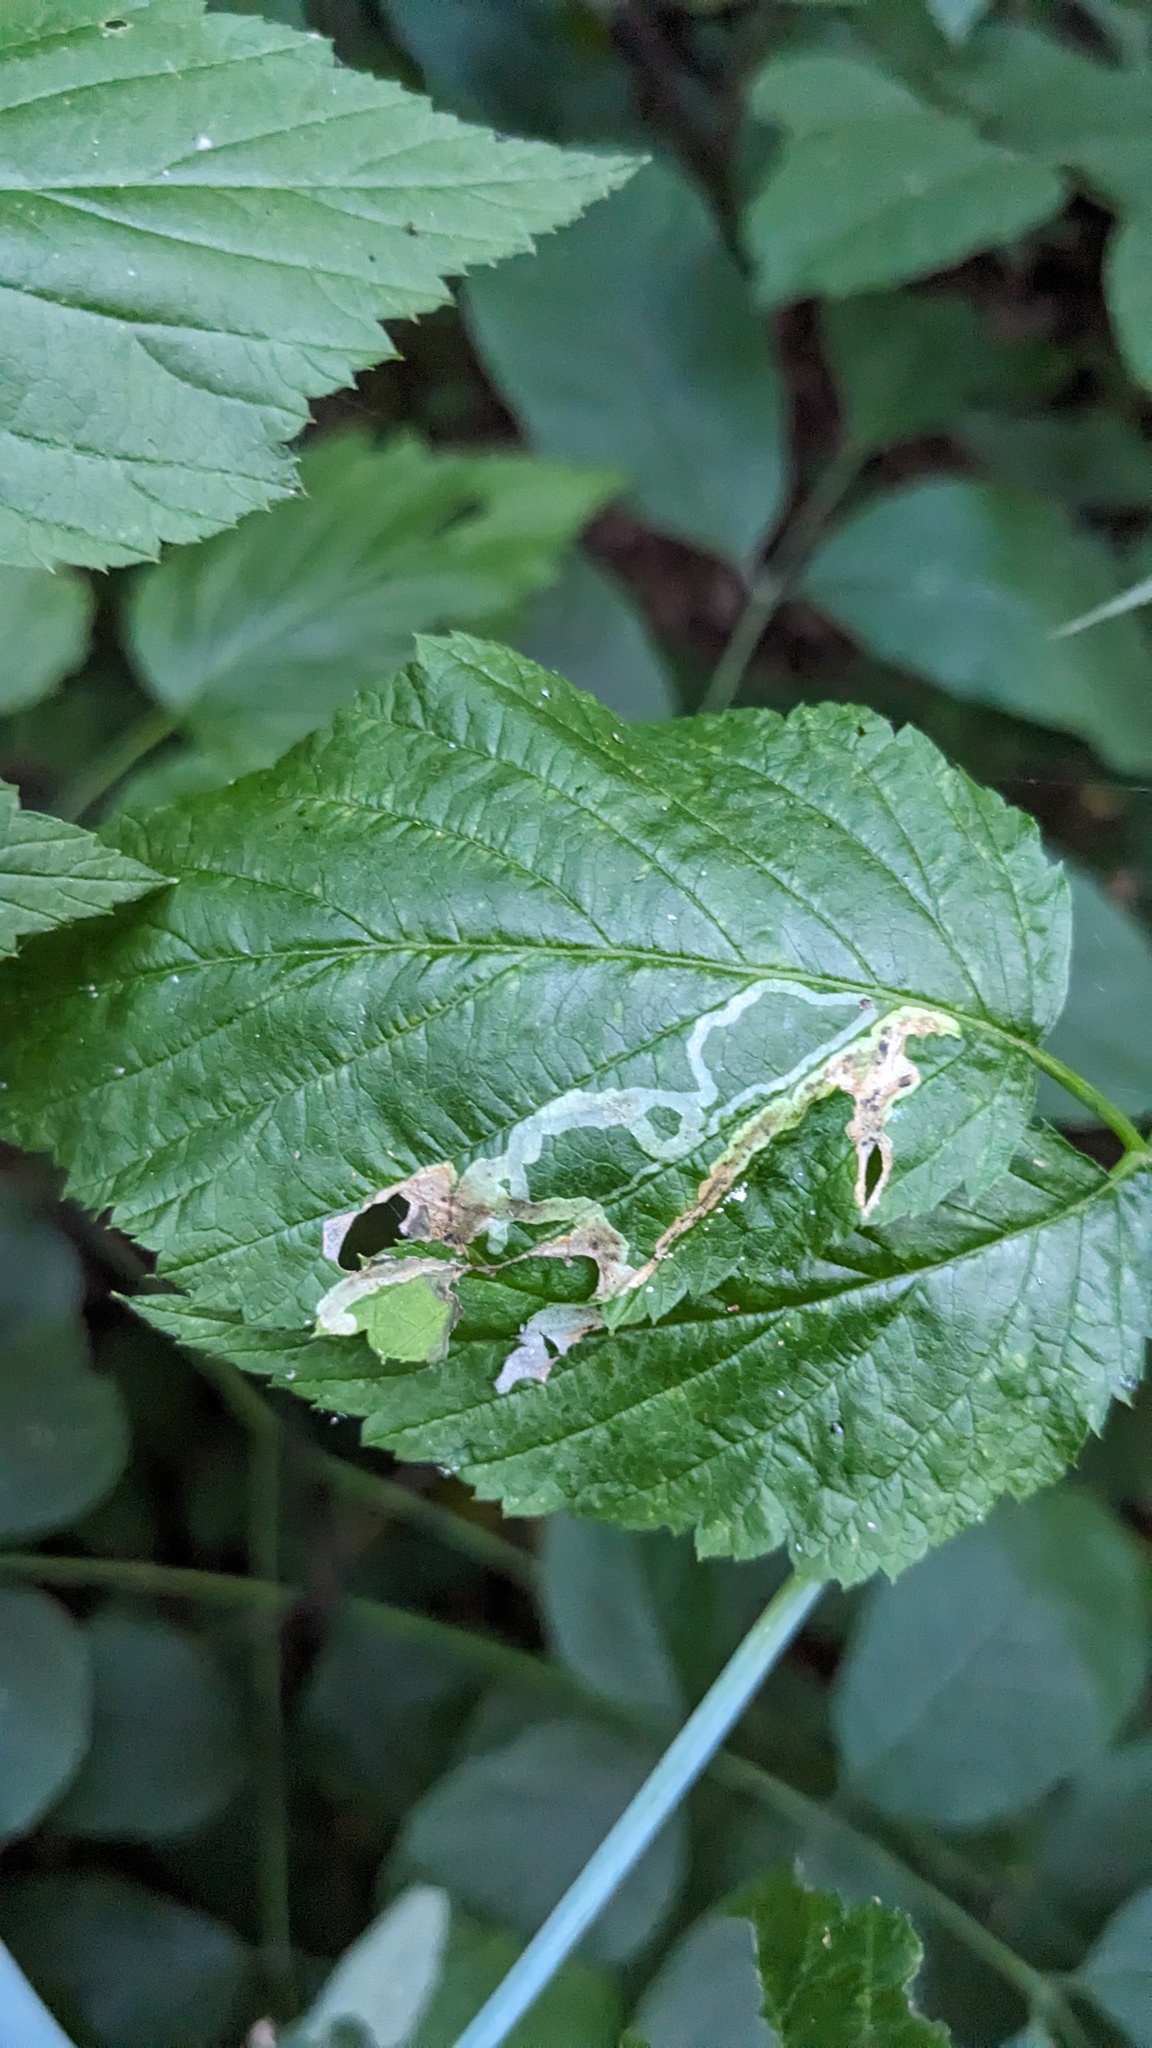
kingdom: Animalia
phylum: Arthropoda
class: Insecta
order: Diptera
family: Agromyzidae
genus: Agromyza
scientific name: Agromyza vockerothi
